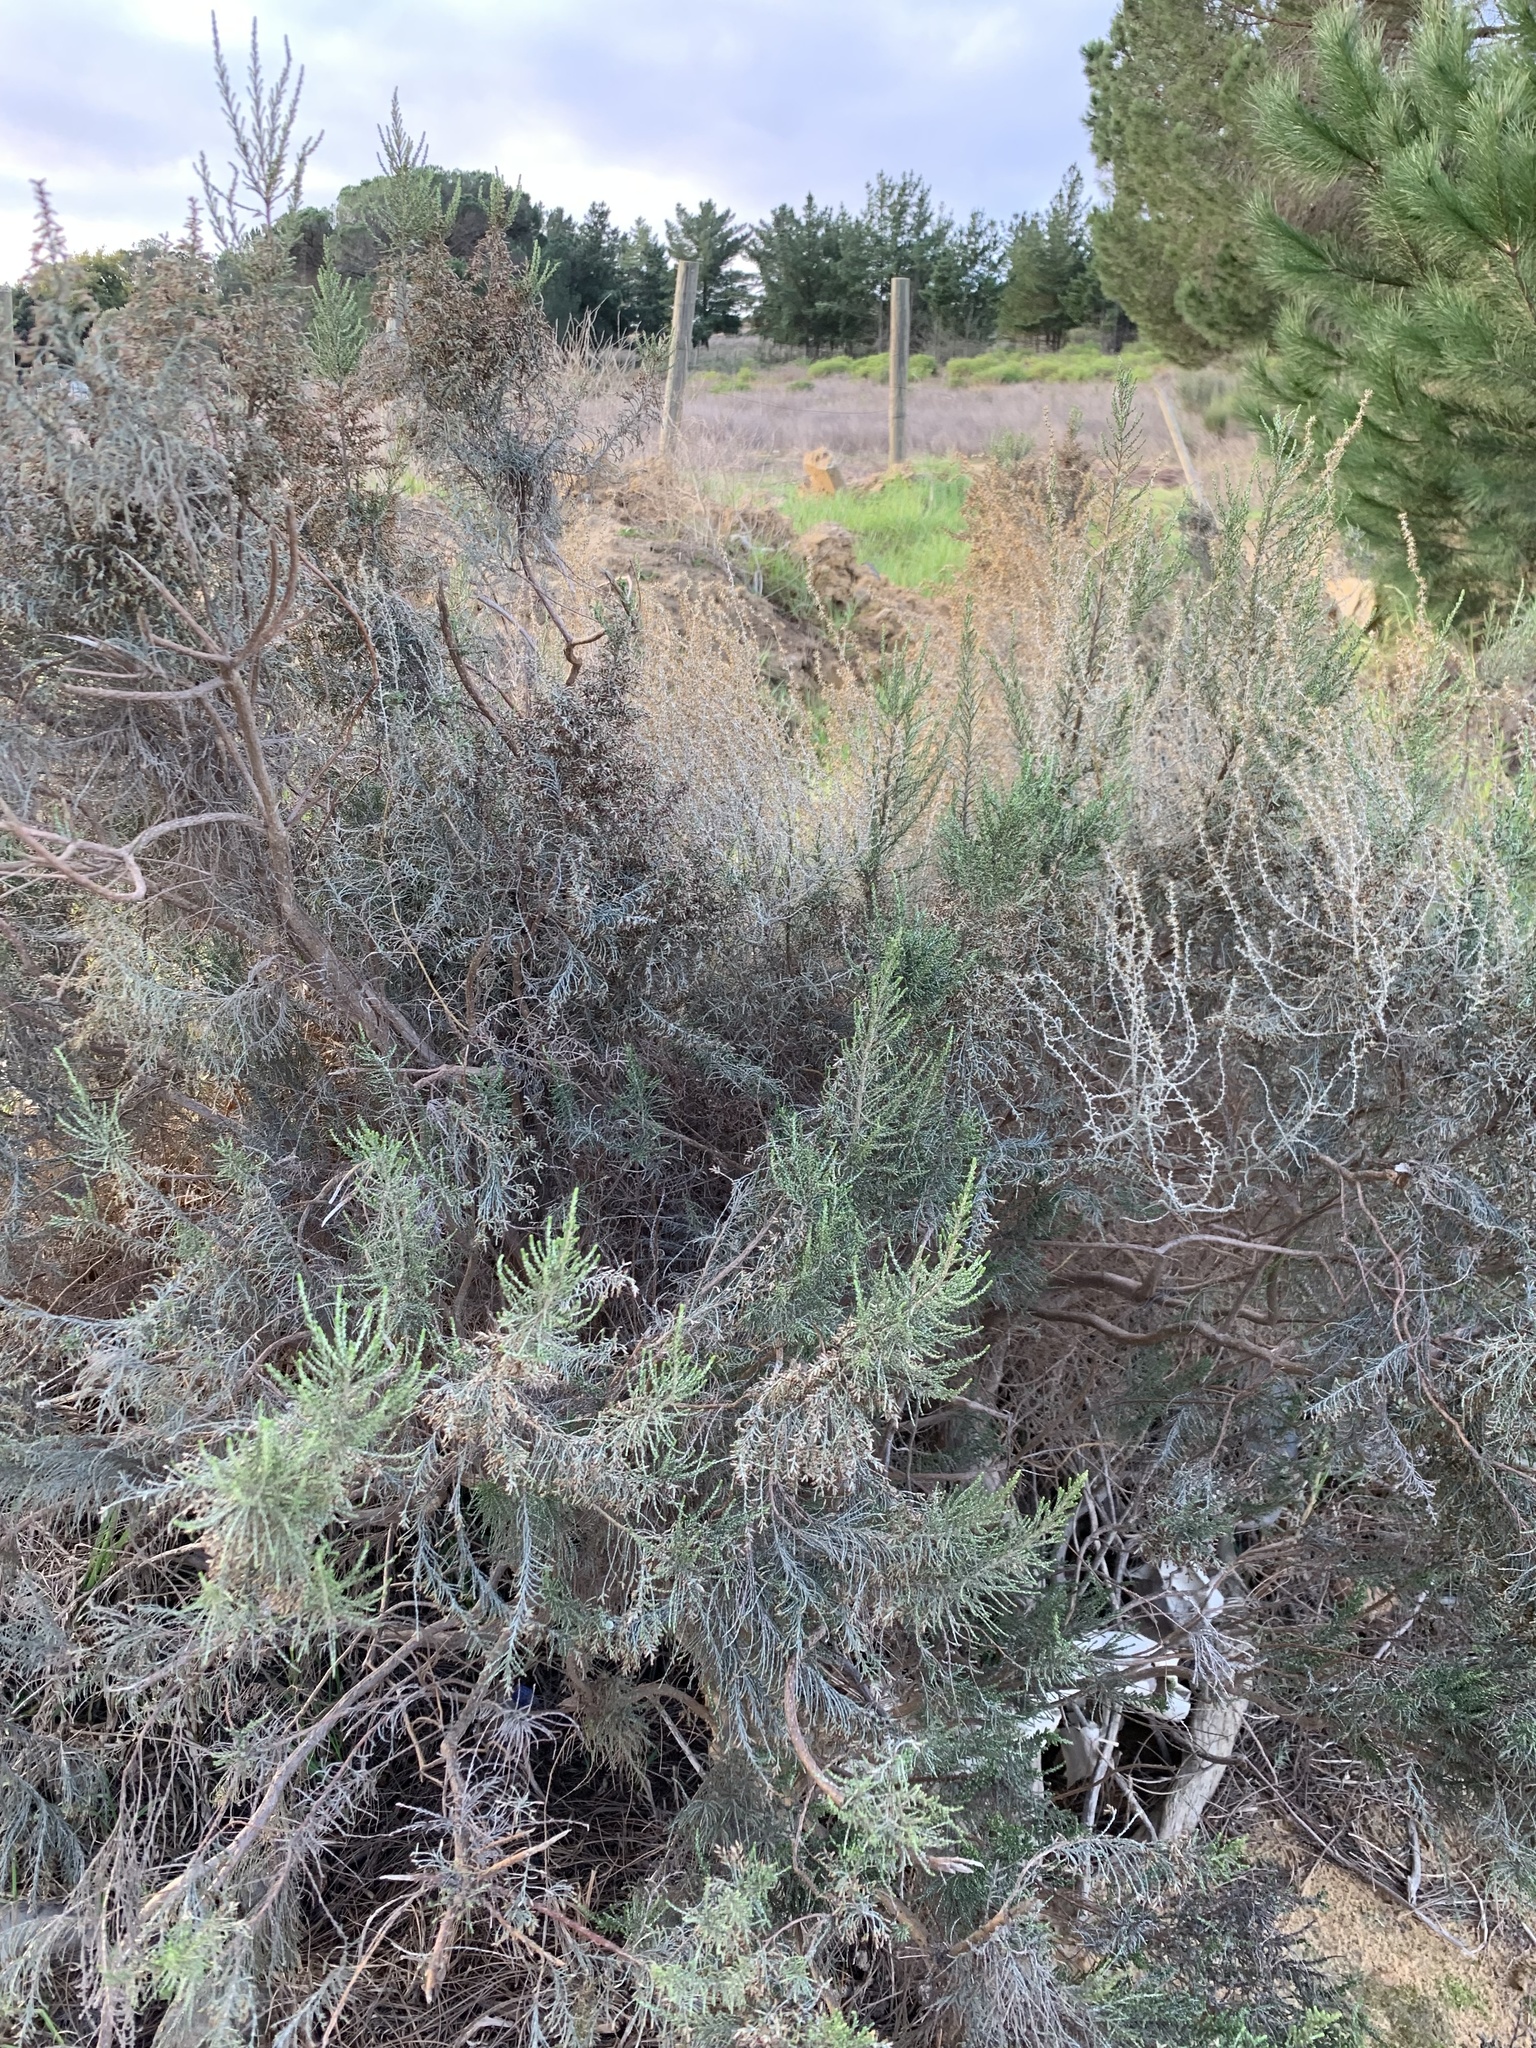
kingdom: Plantae
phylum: Tracheophyta
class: Magnoliopsida
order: Asterales
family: Asteraceae
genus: Dicerothamnus
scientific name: Dicerothamnus rhinocerotis
